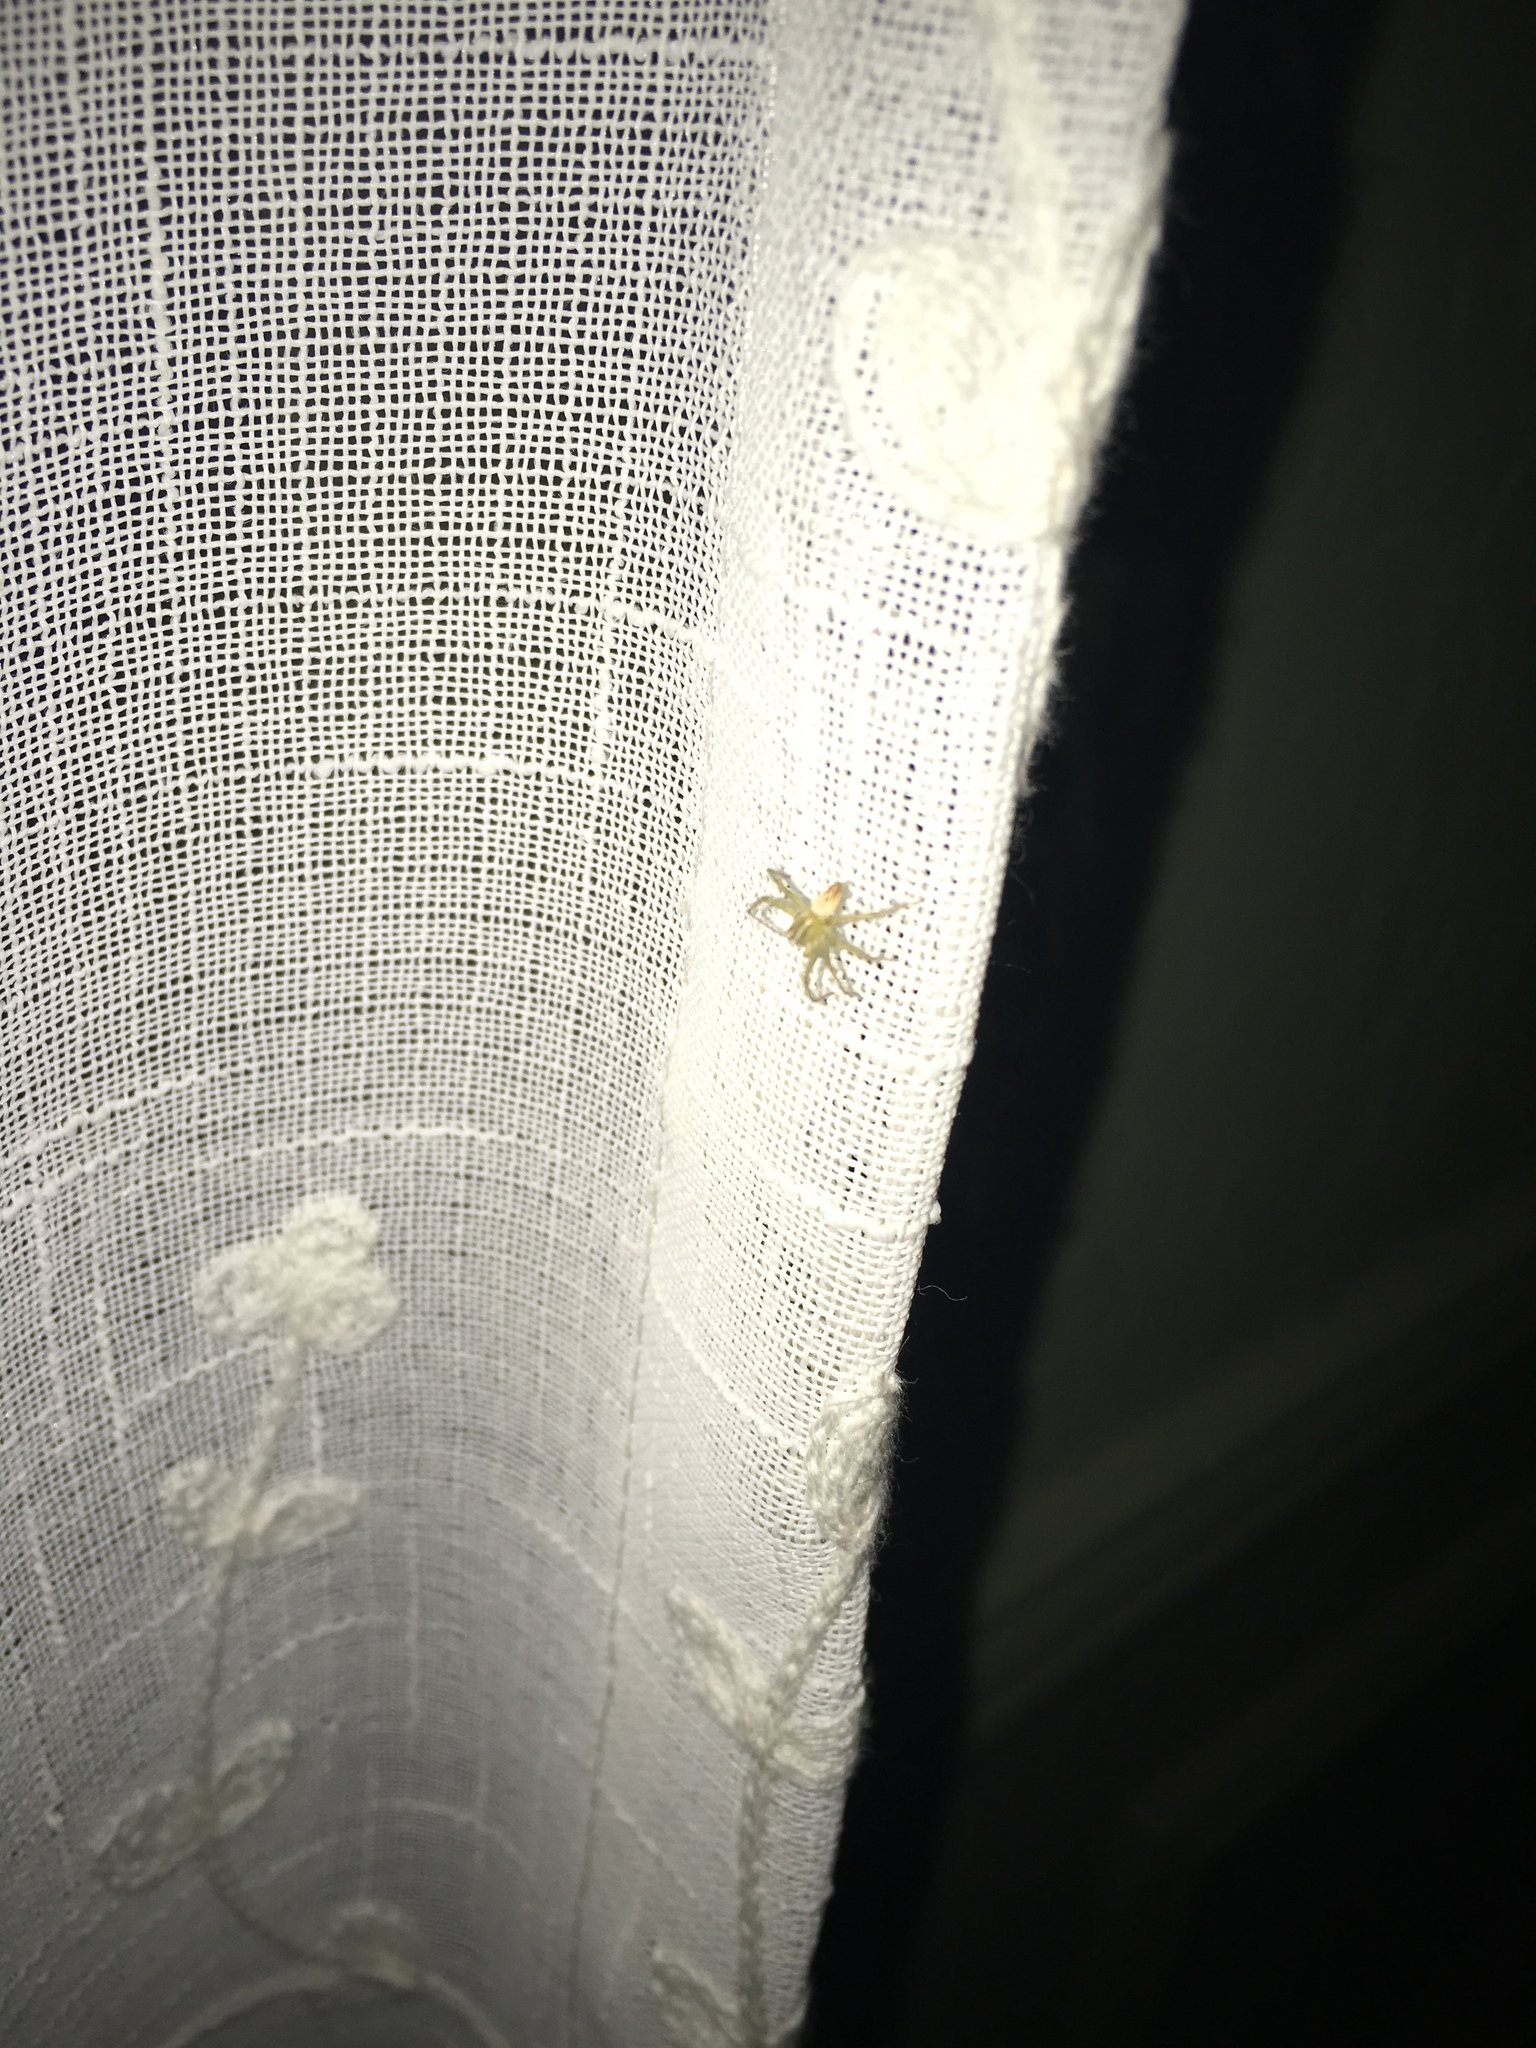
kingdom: Animalia
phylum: Arthropoda
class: Arachnida
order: Araneae
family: Oxyopidae
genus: Oxyopes
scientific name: Oxyopes salticus
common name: Lynx spiders
